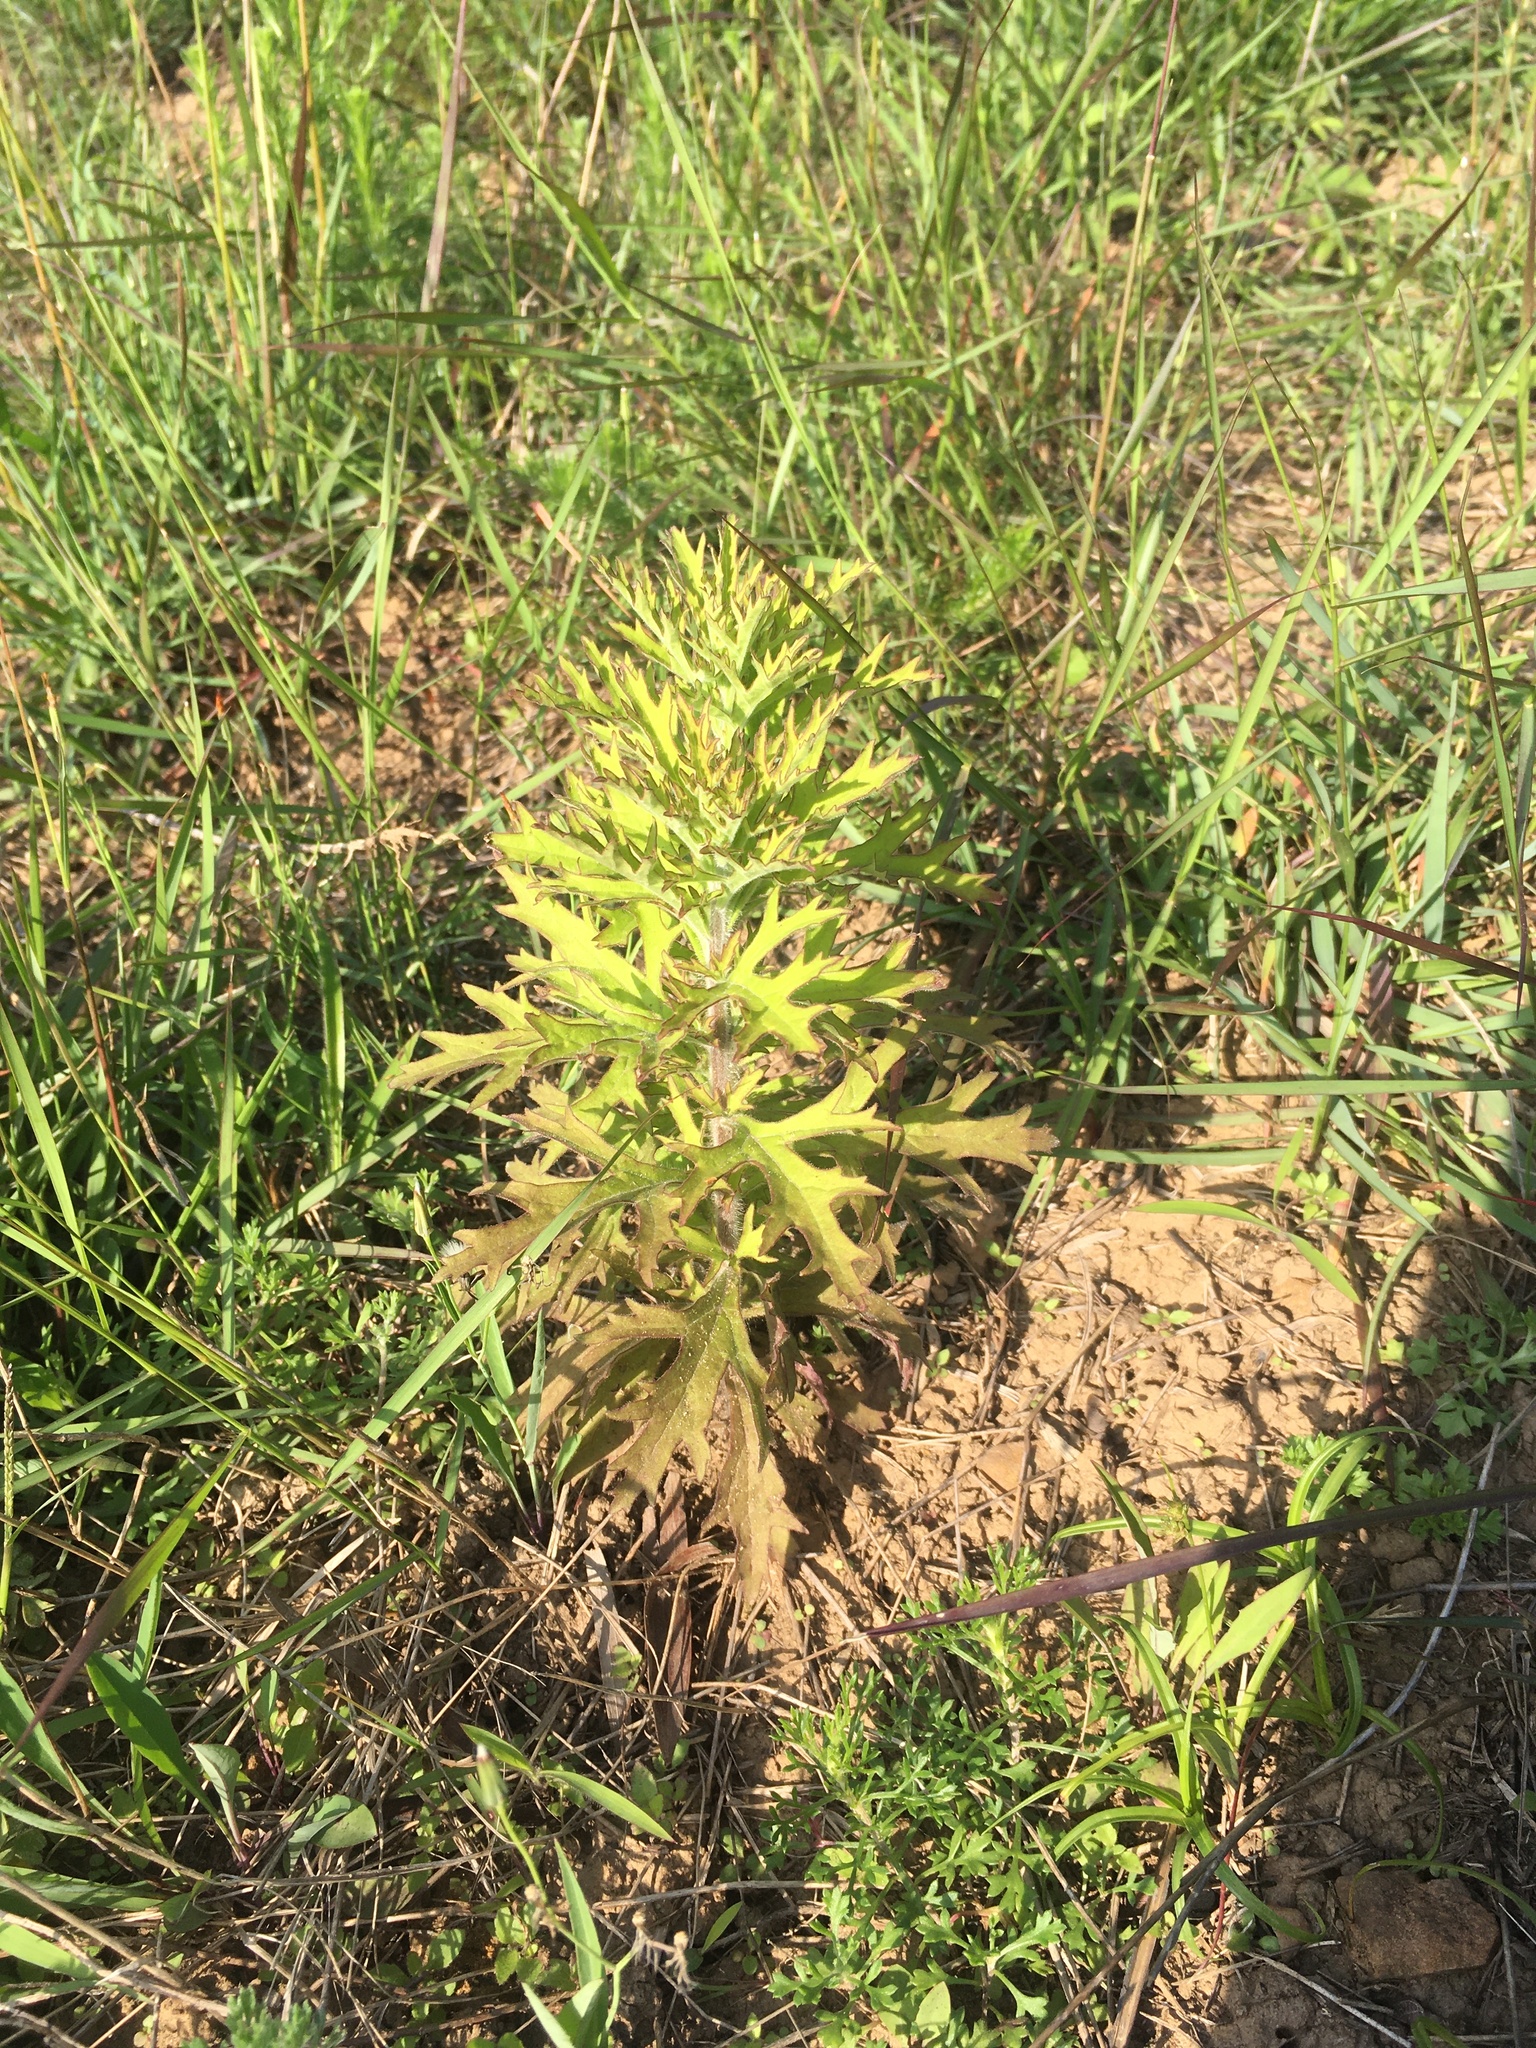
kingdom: Plantae
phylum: Tracheophyta
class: Magnoliopsida
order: Lamiales
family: Orobanchaceae
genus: Siphonostegia
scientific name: Siphonostegia chinensis
